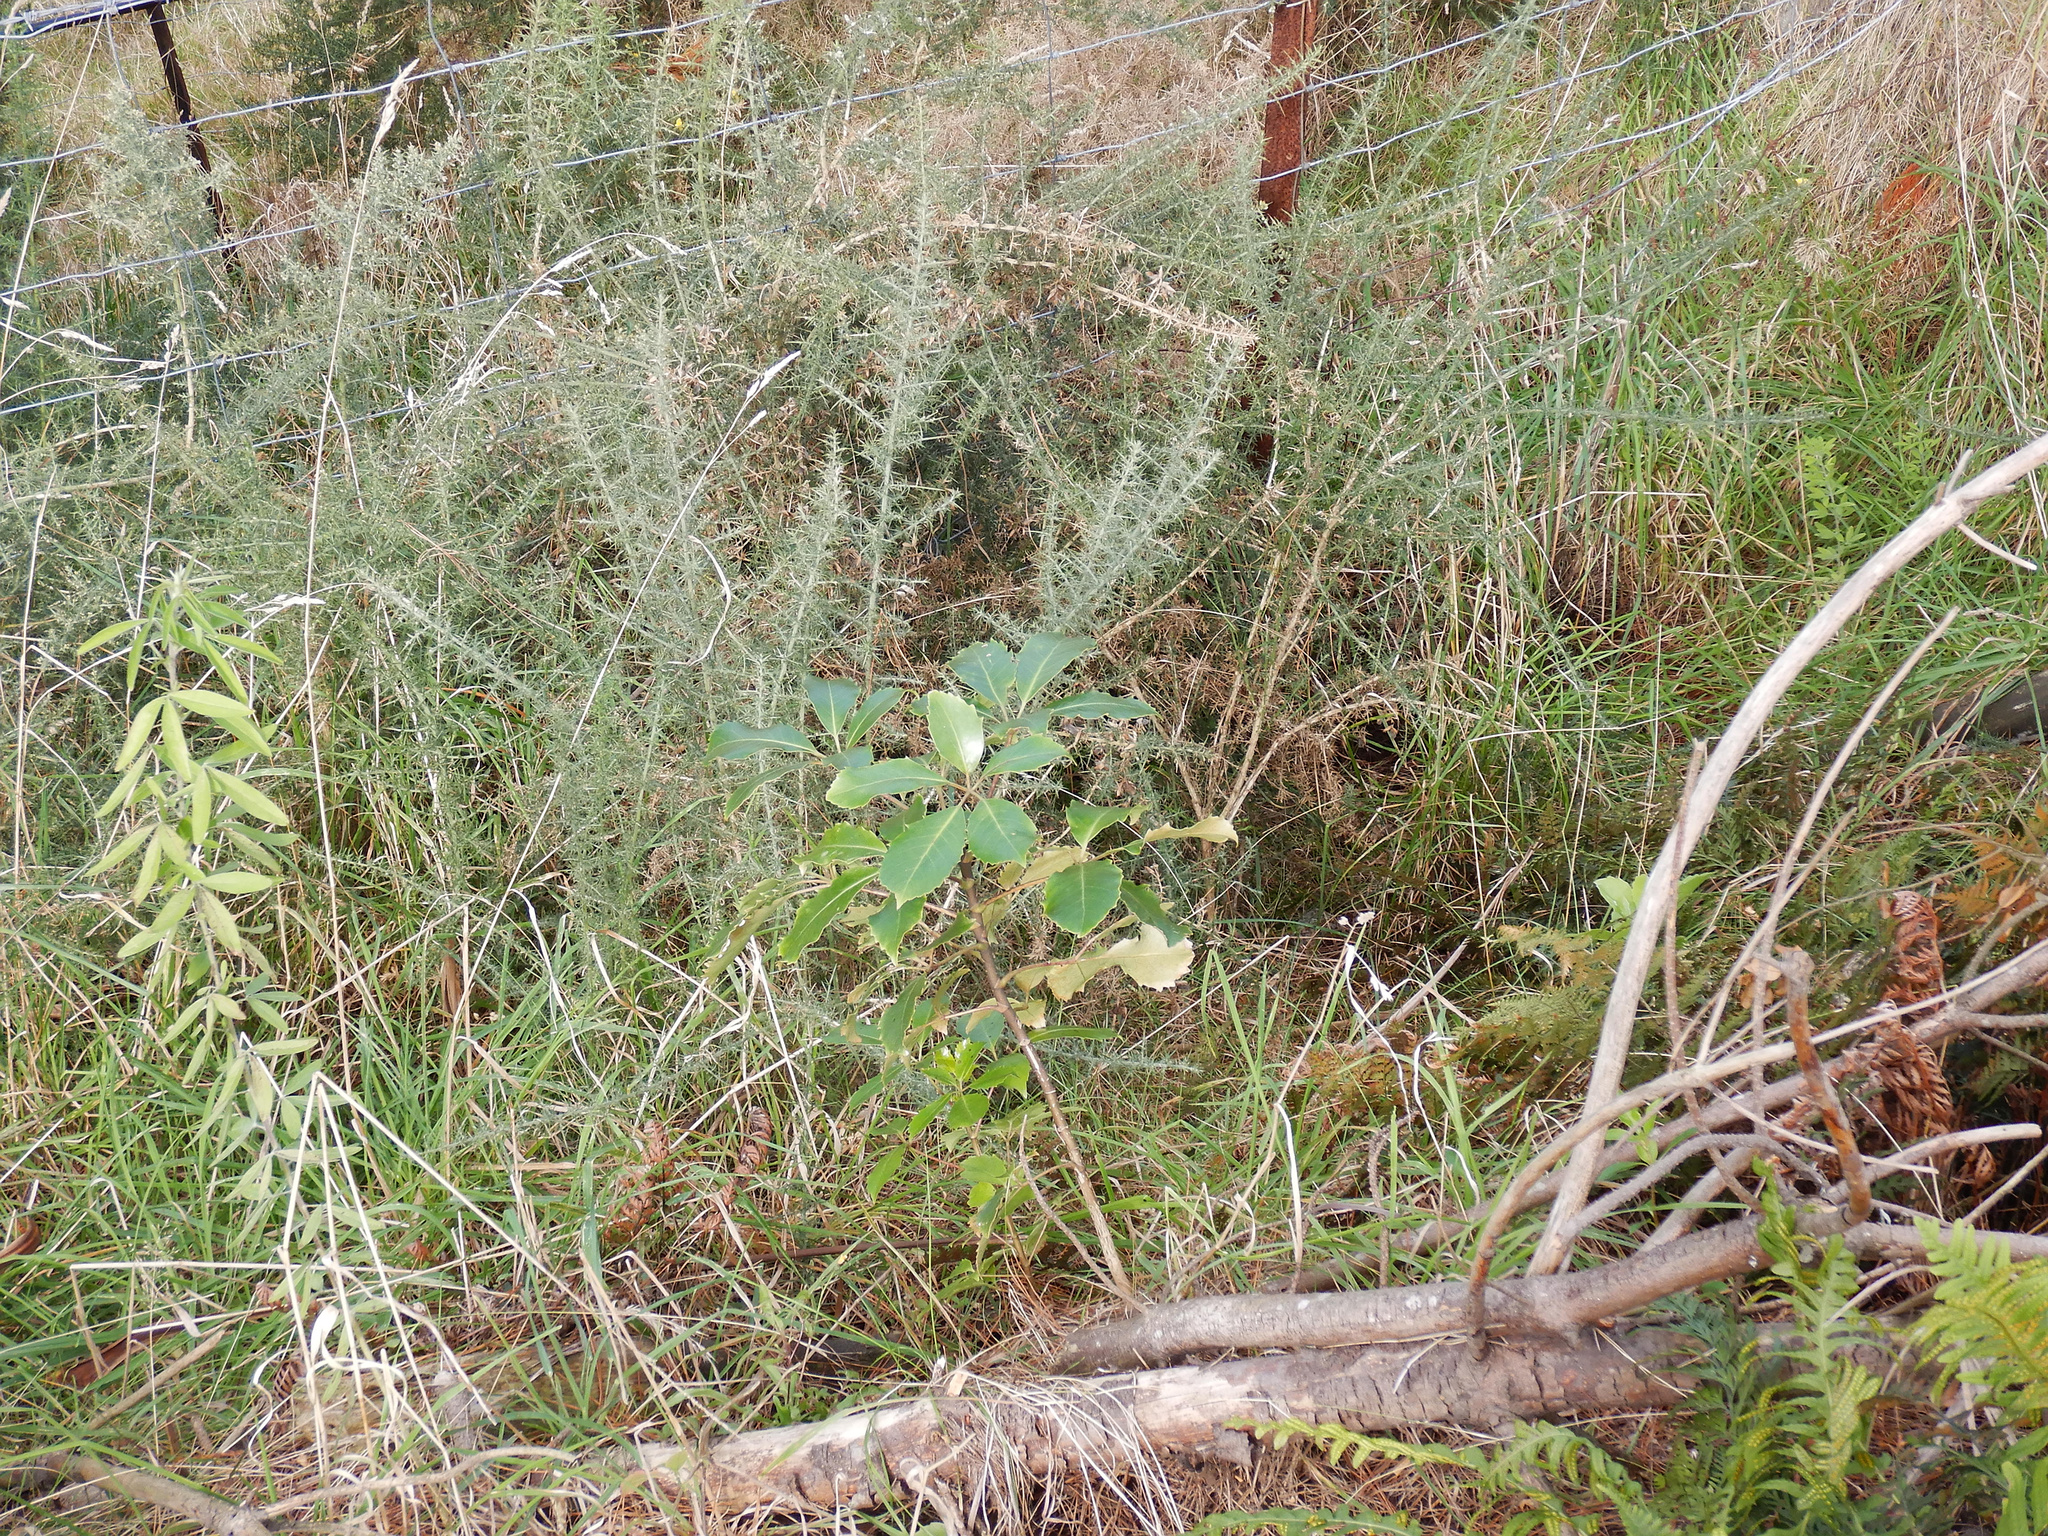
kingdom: Plantae
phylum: Tracheophyta
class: Magnoliopsida
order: Apiales
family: Araliaceae
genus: Neopanax
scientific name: Neopanax arboreus
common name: Five-fingers
